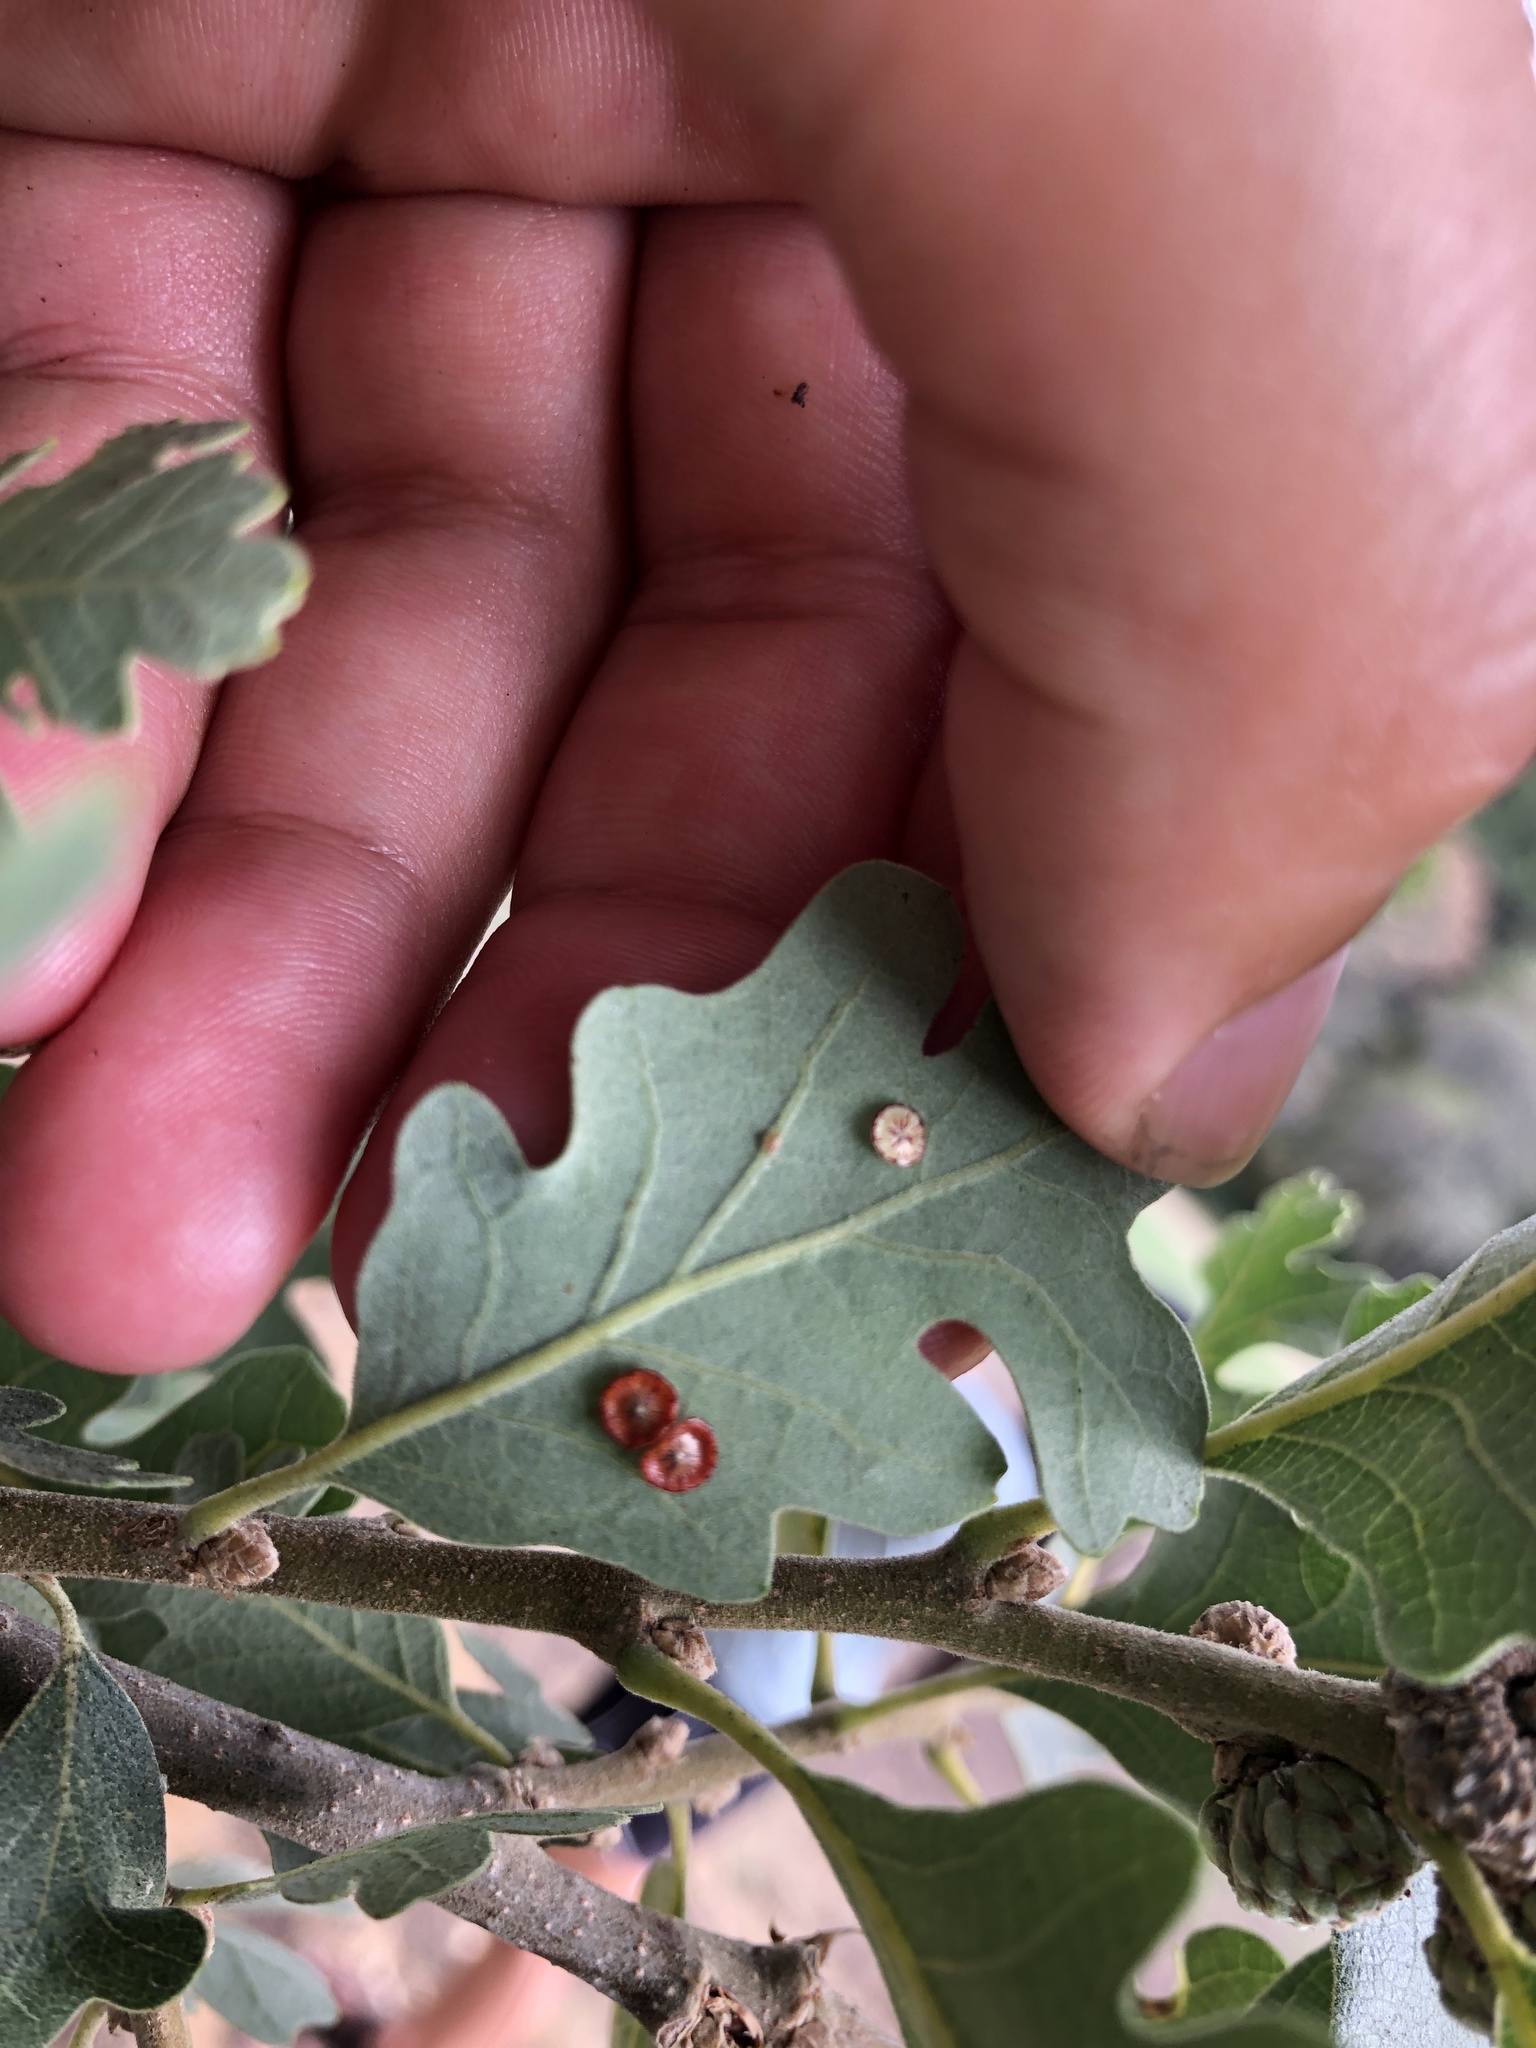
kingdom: Animalia
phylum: Arthropoda
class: Insecta
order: Hymenoptera
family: Cynipidae
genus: Andricus
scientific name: Andricus
